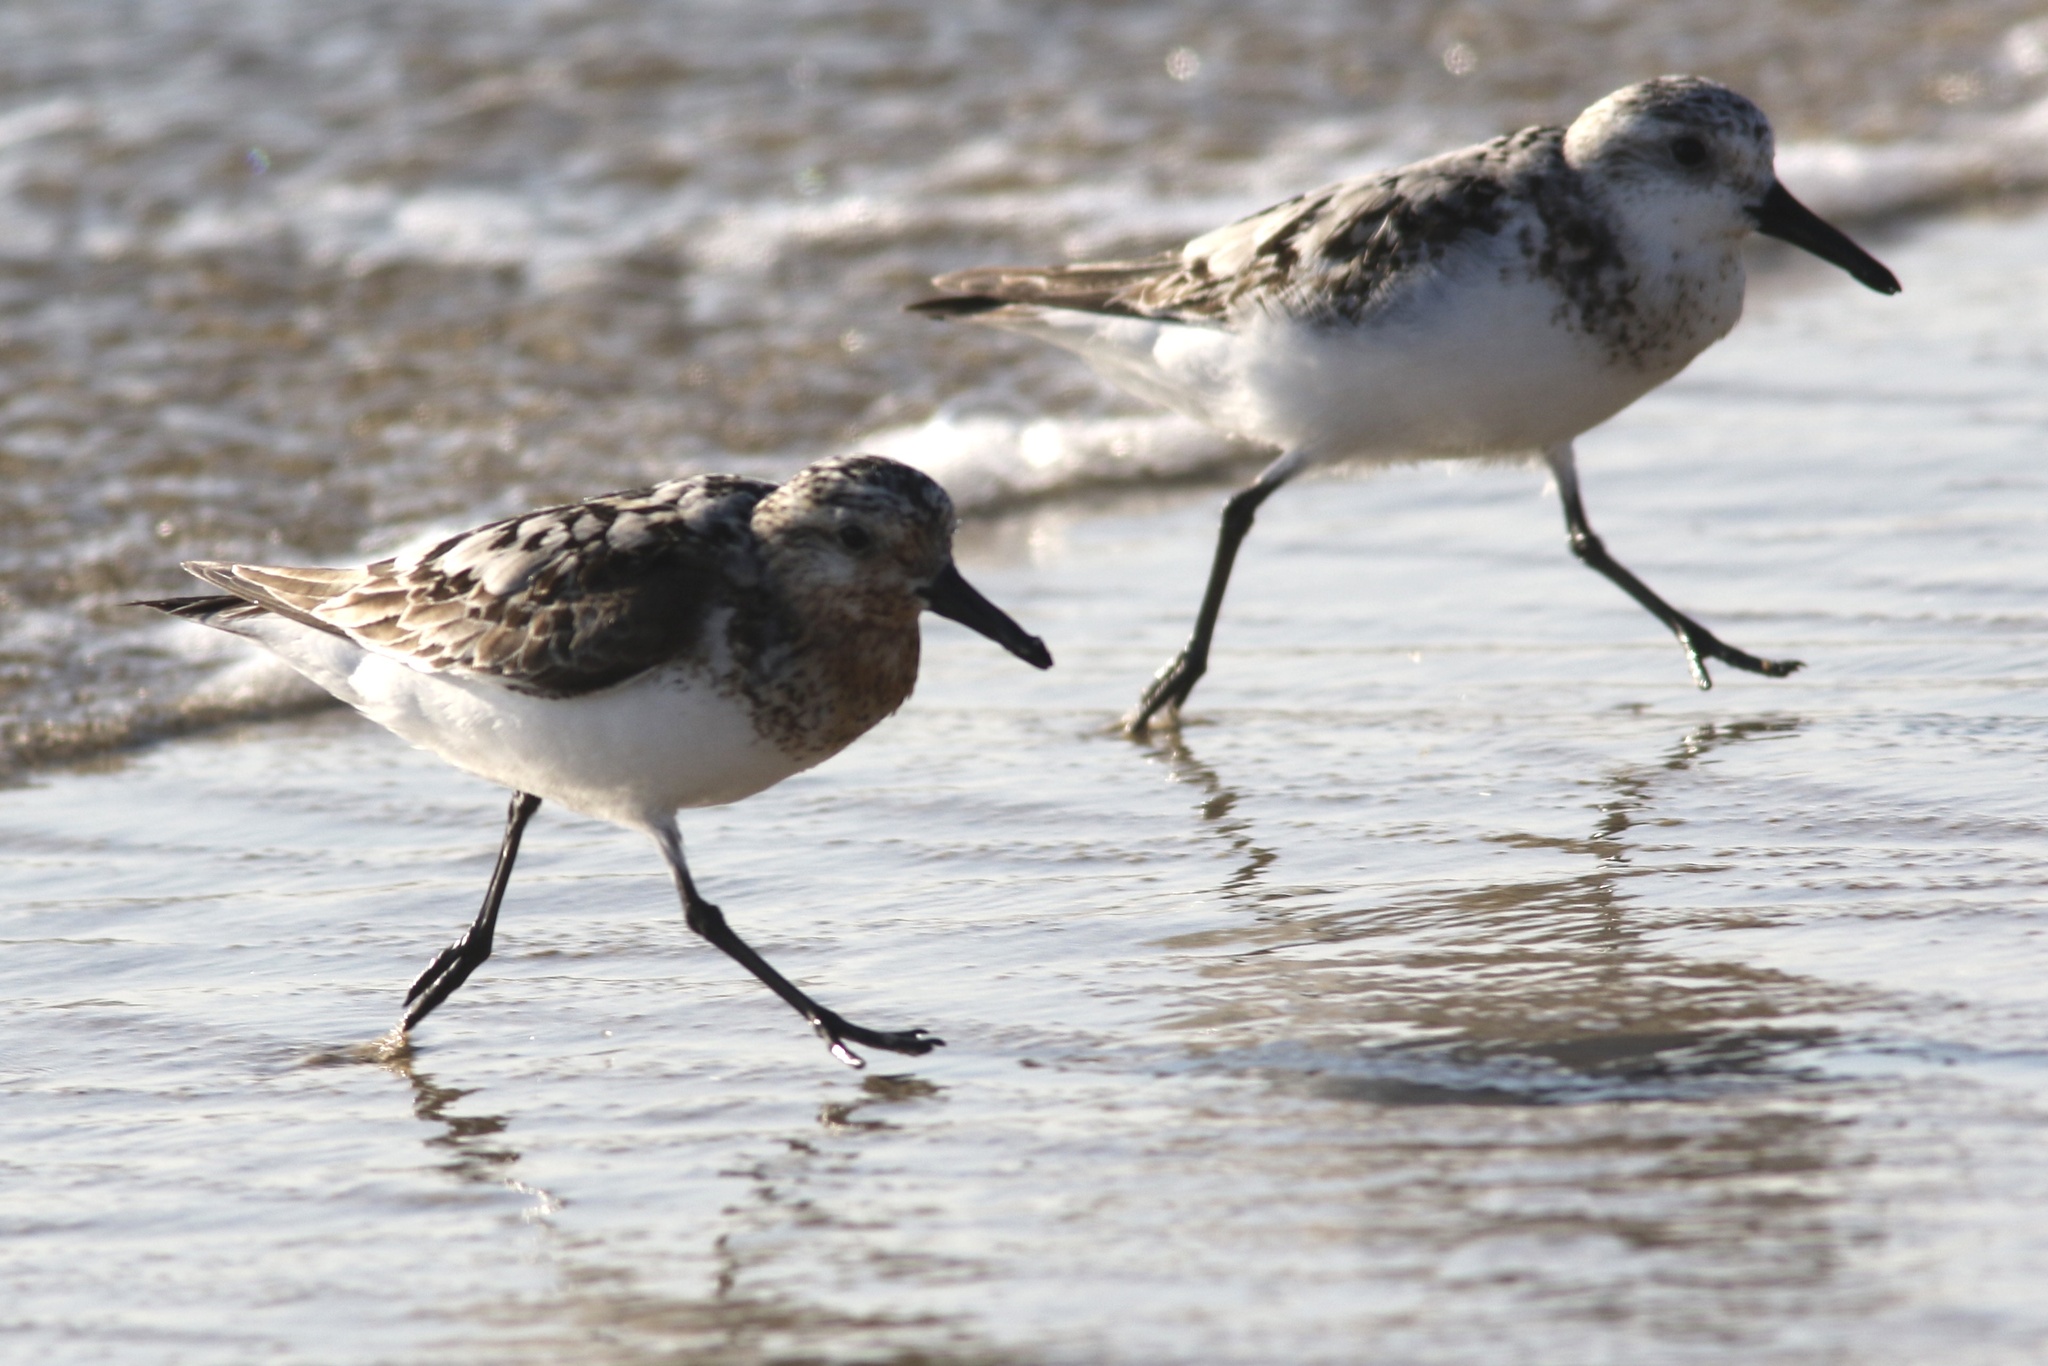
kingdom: Animalia
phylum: Chordata
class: Aves
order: Charadriiformes
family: Scolopacidae
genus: Calidris
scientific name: Calidris alba
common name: Sanderling
